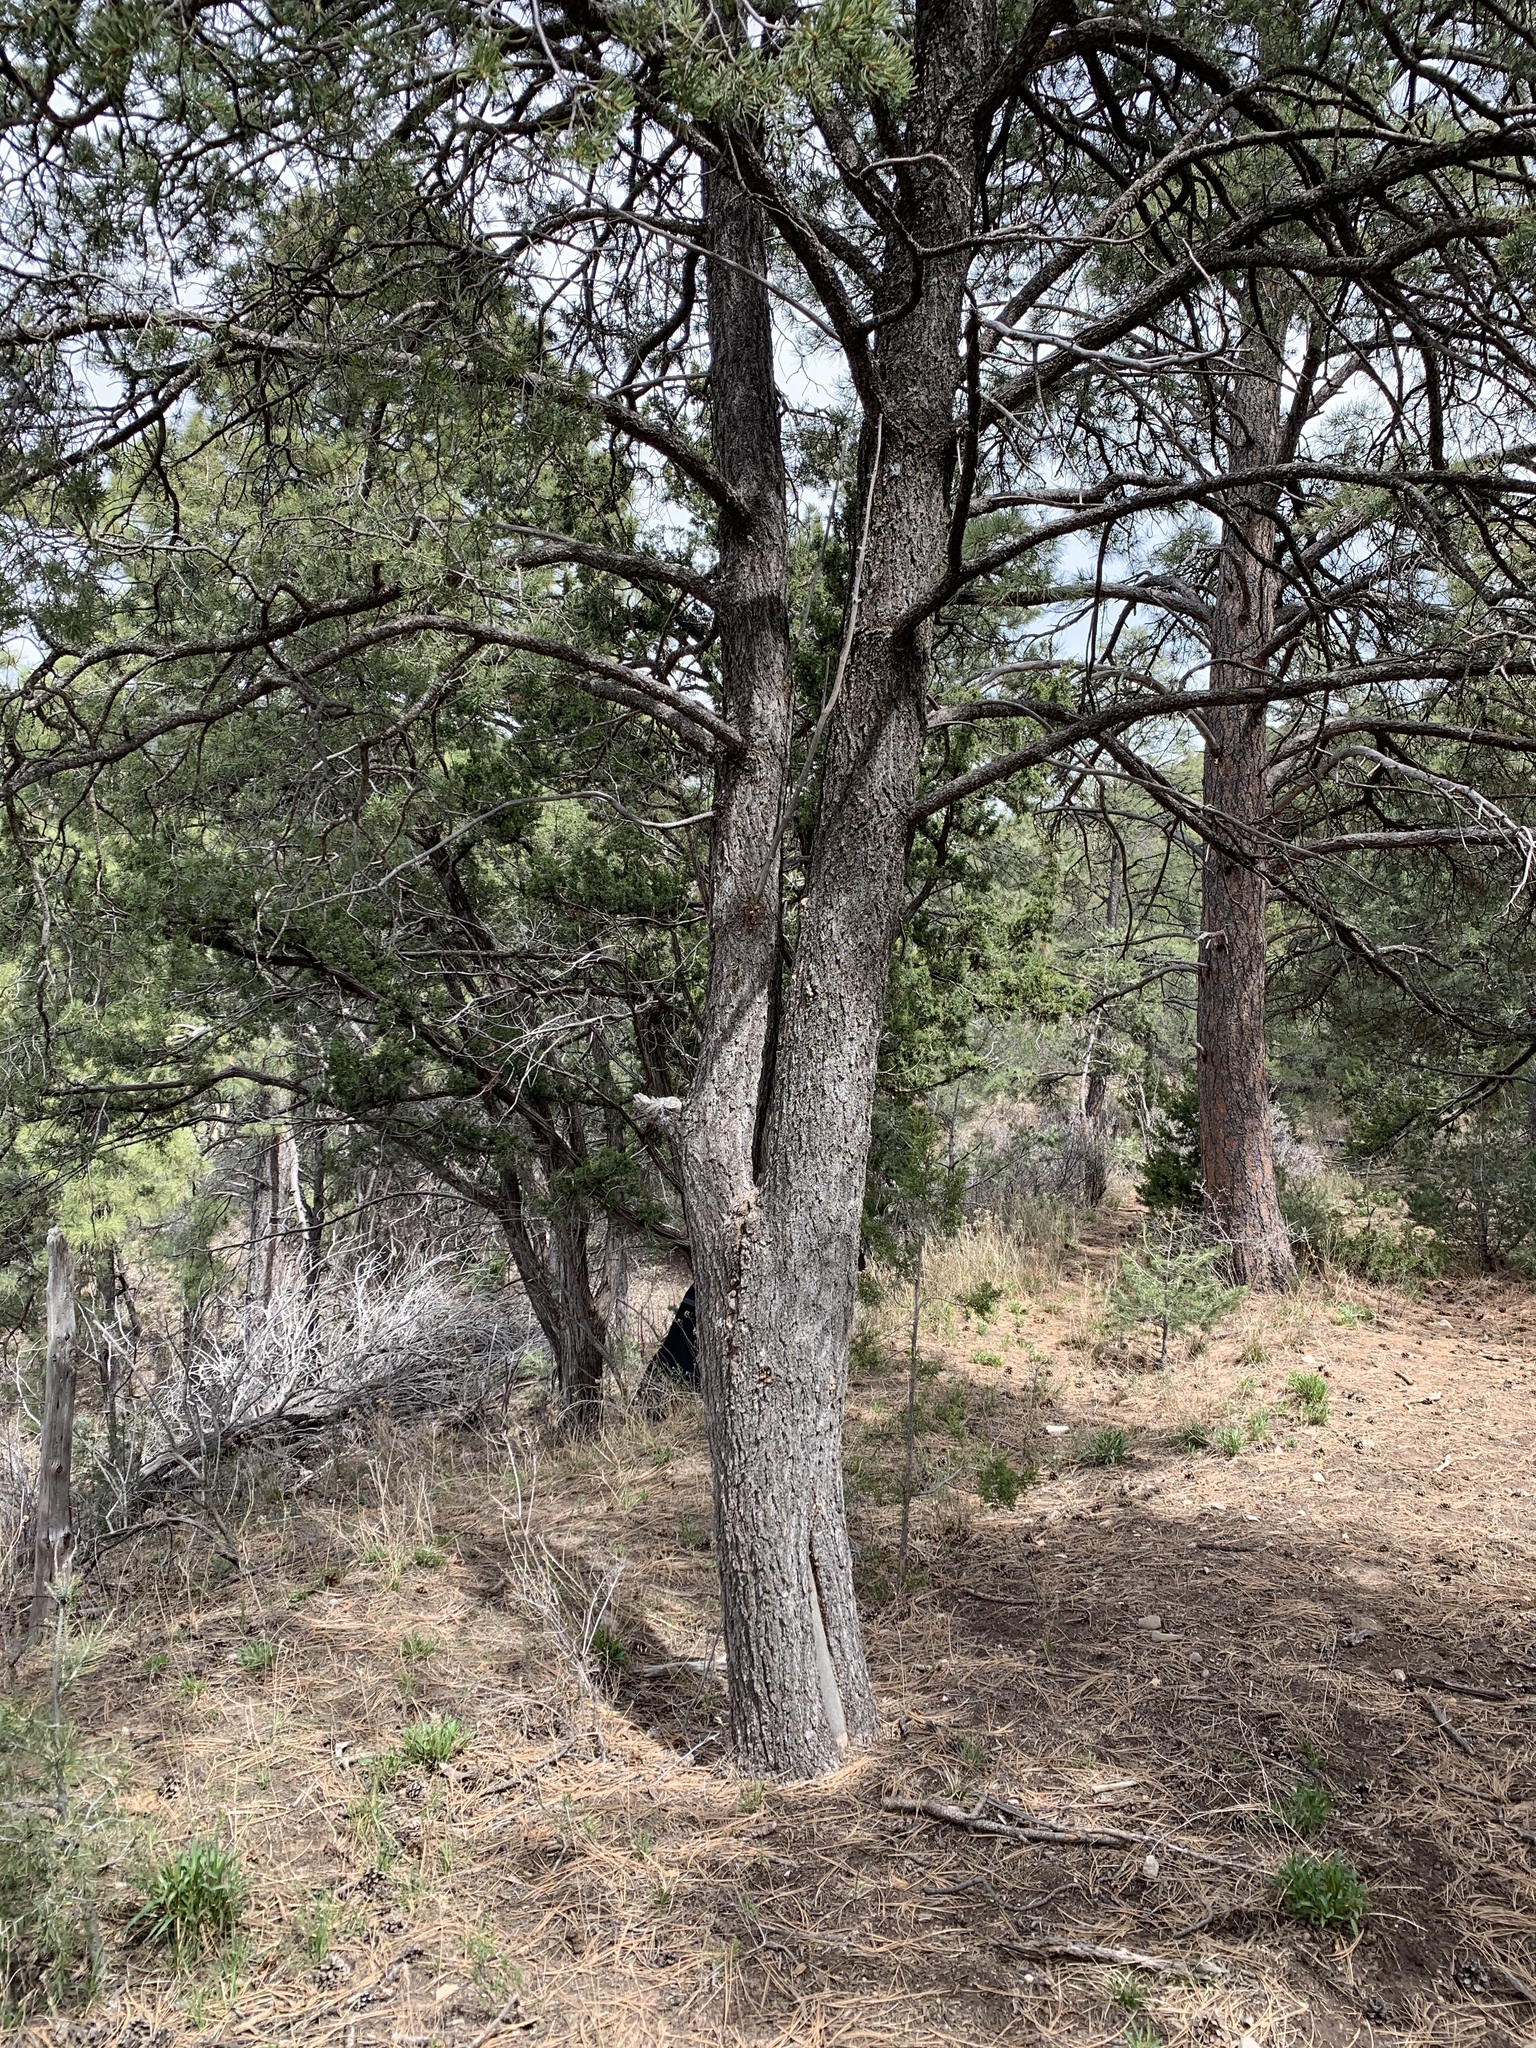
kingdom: Plantae
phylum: Tracheophyta
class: Pinopsida
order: Pinales
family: Pinaceae
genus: Pinus
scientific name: Pinus edulis
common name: Colorado pinyon
